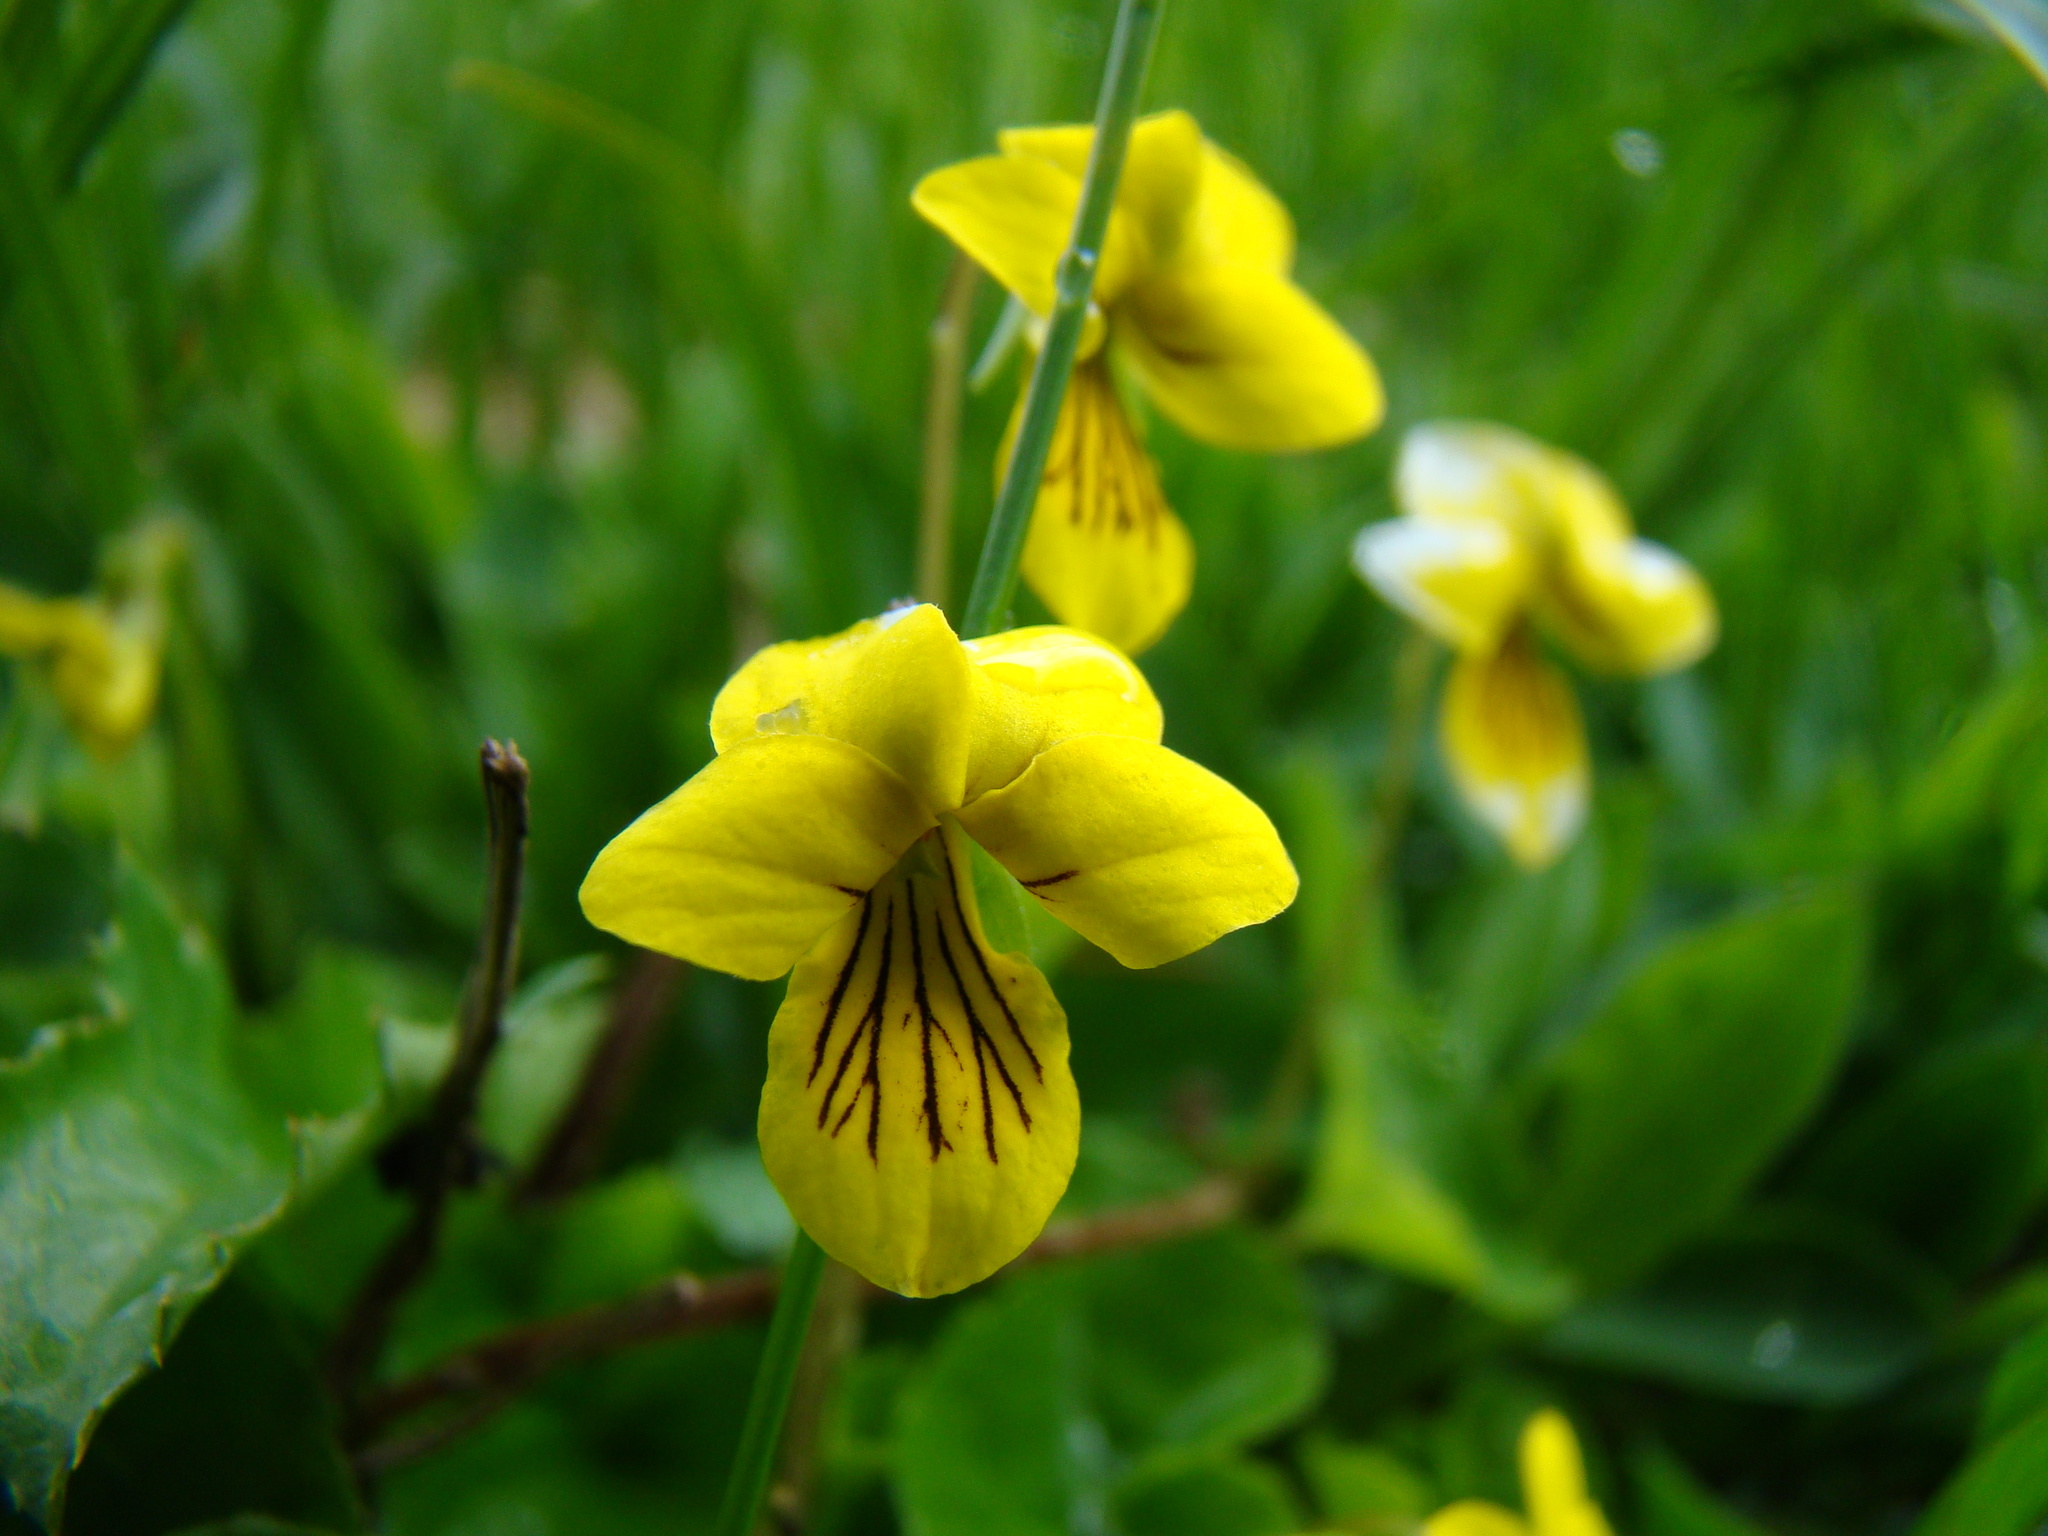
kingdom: Plantae
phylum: Tracheophyta
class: Magnoliopsida
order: Malpighiales
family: Violaceae
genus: Viola
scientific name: Viola biflora
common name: Alpine yellow violet
